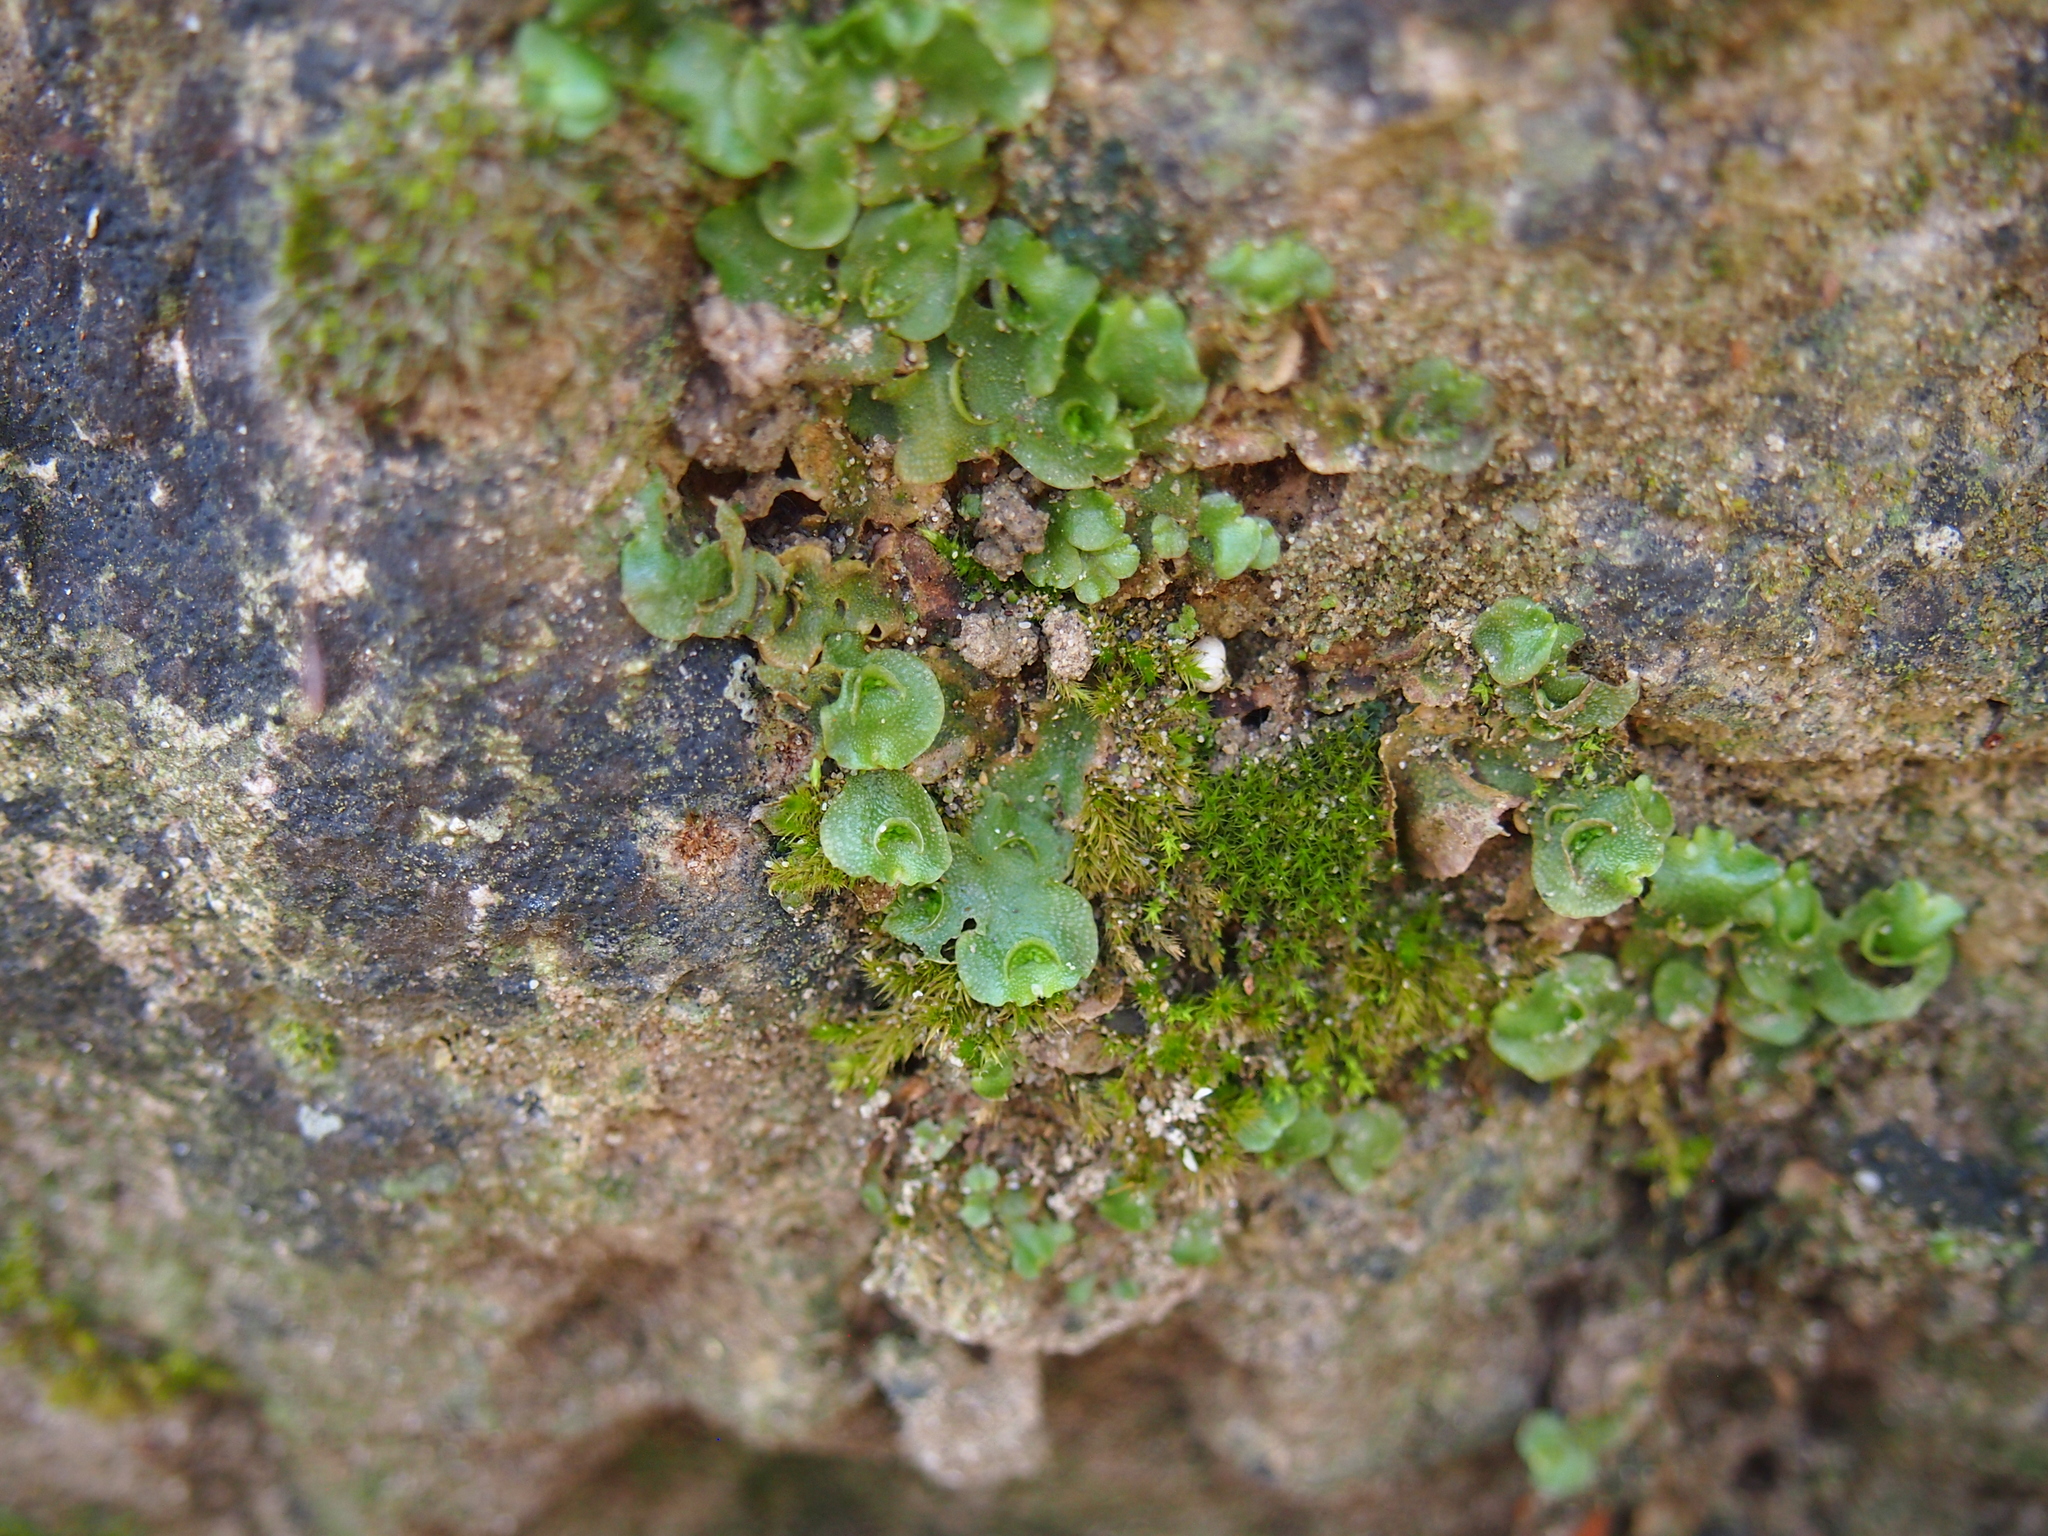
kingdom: Plantae
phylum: Marchantiophyta
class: Marchantiopsida
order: Lunulariales
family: Lunulariaceae
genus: Lunularia
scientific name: Lunularia cruciata
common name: Crescent-cup liverwort
